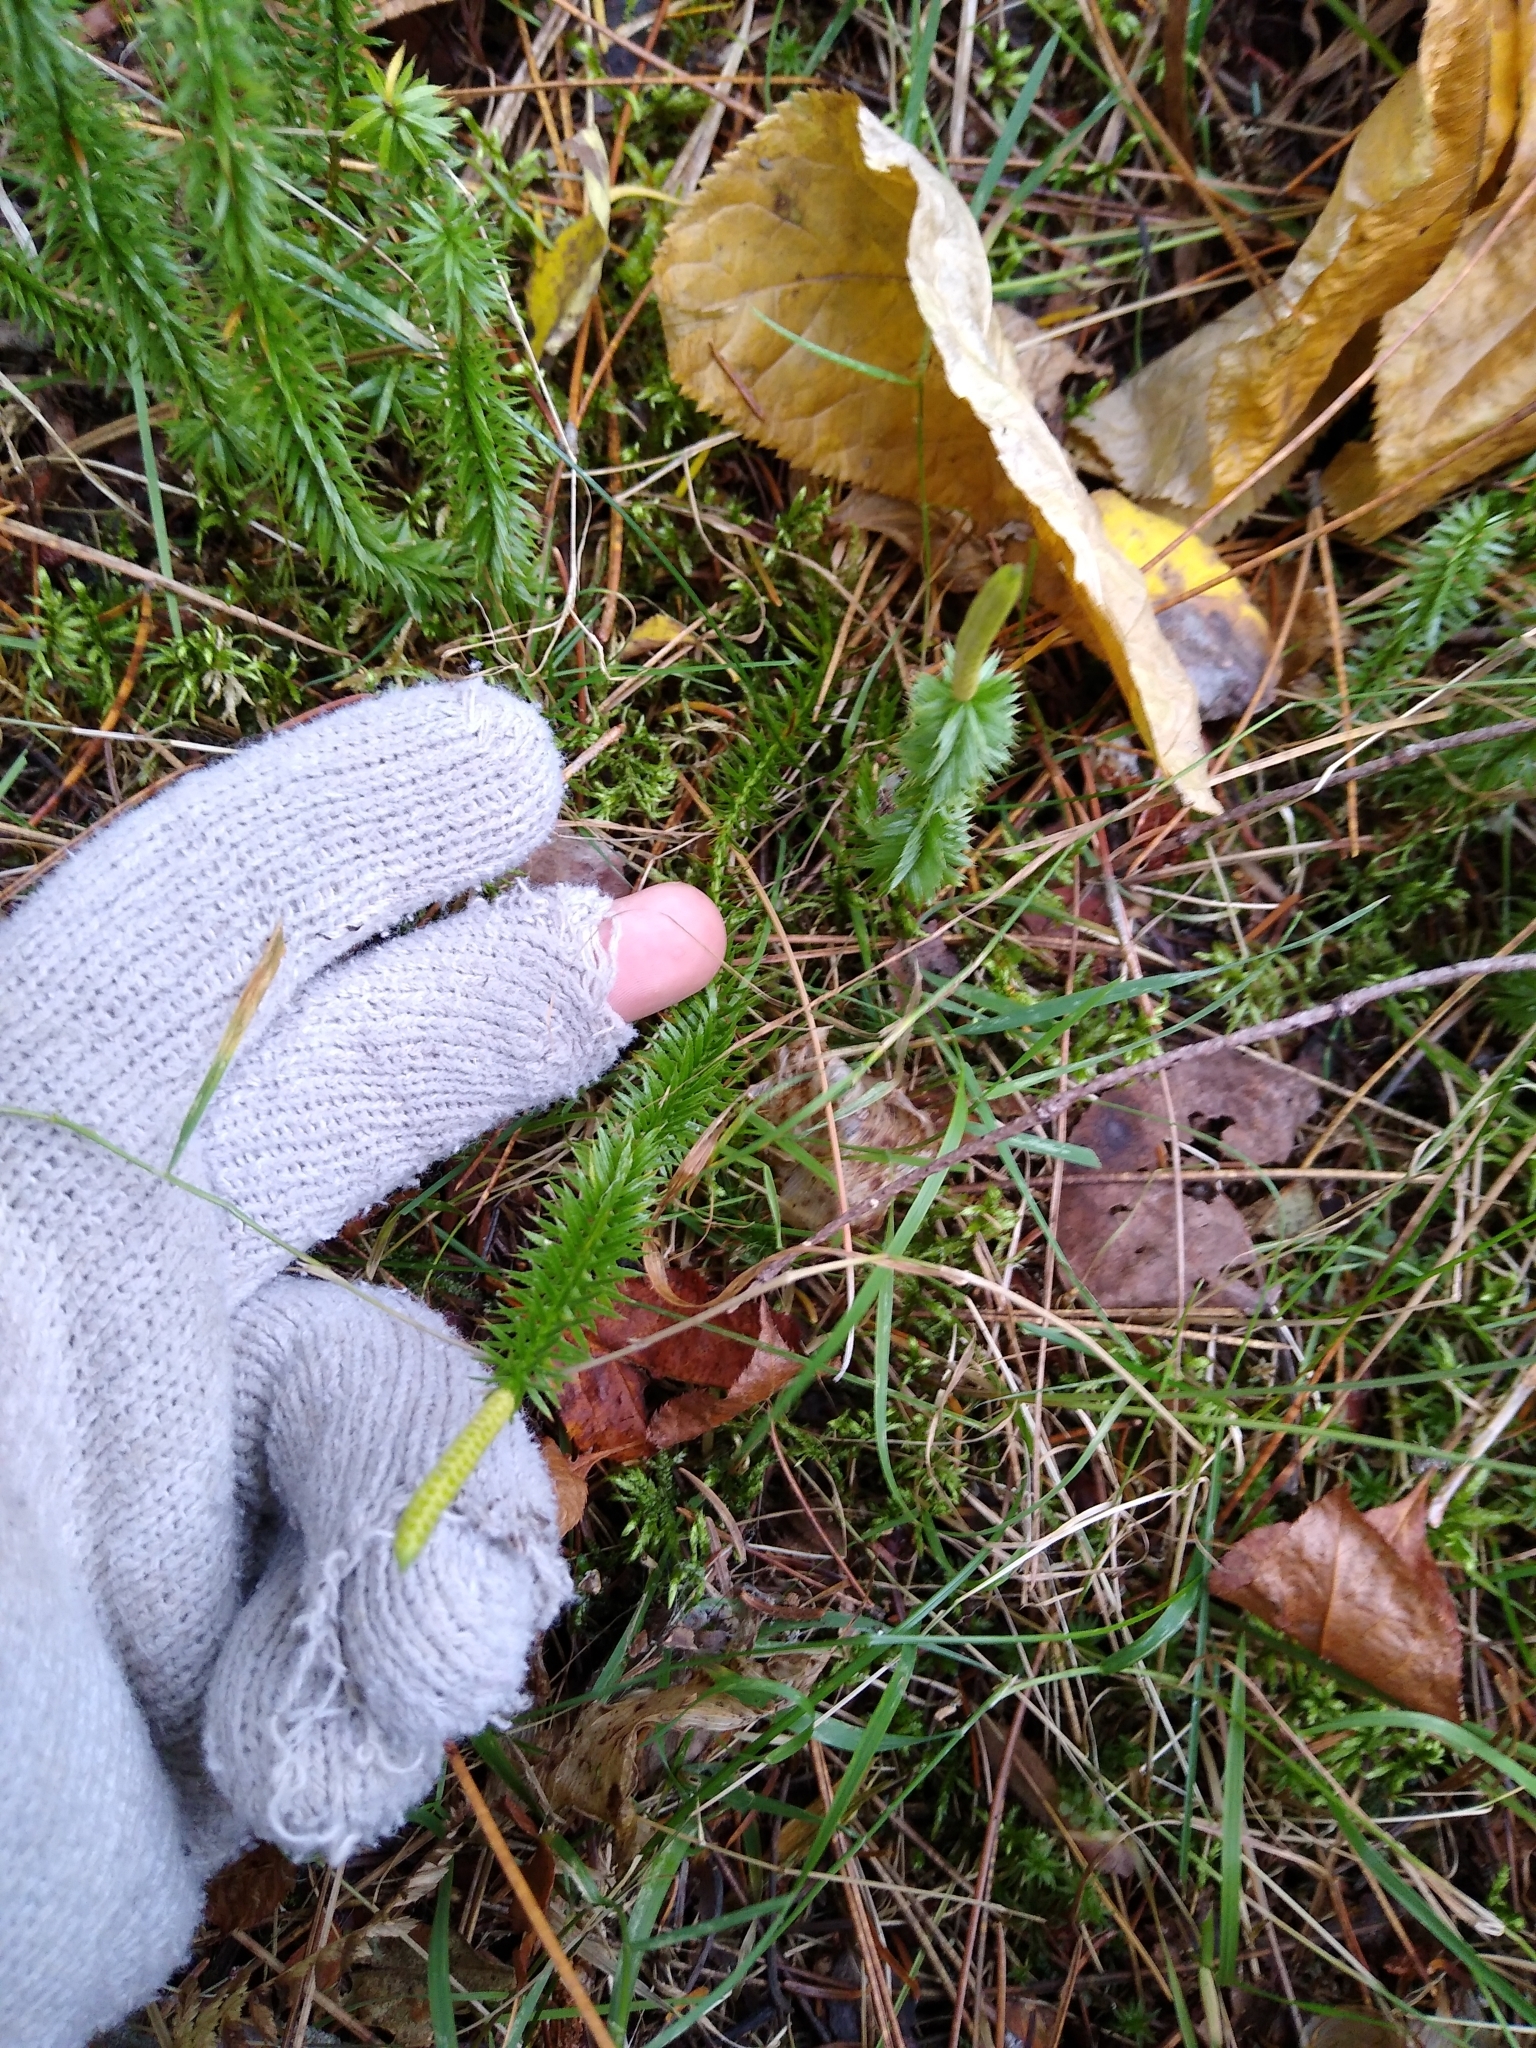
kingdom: Plantae
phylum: Tracheophyta
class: Lycopodiopsida
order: Lycopodiales
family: Lycopodiaceae
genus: Spinulum
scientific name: Spinulum annotinum
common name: Interrupted club-moss
